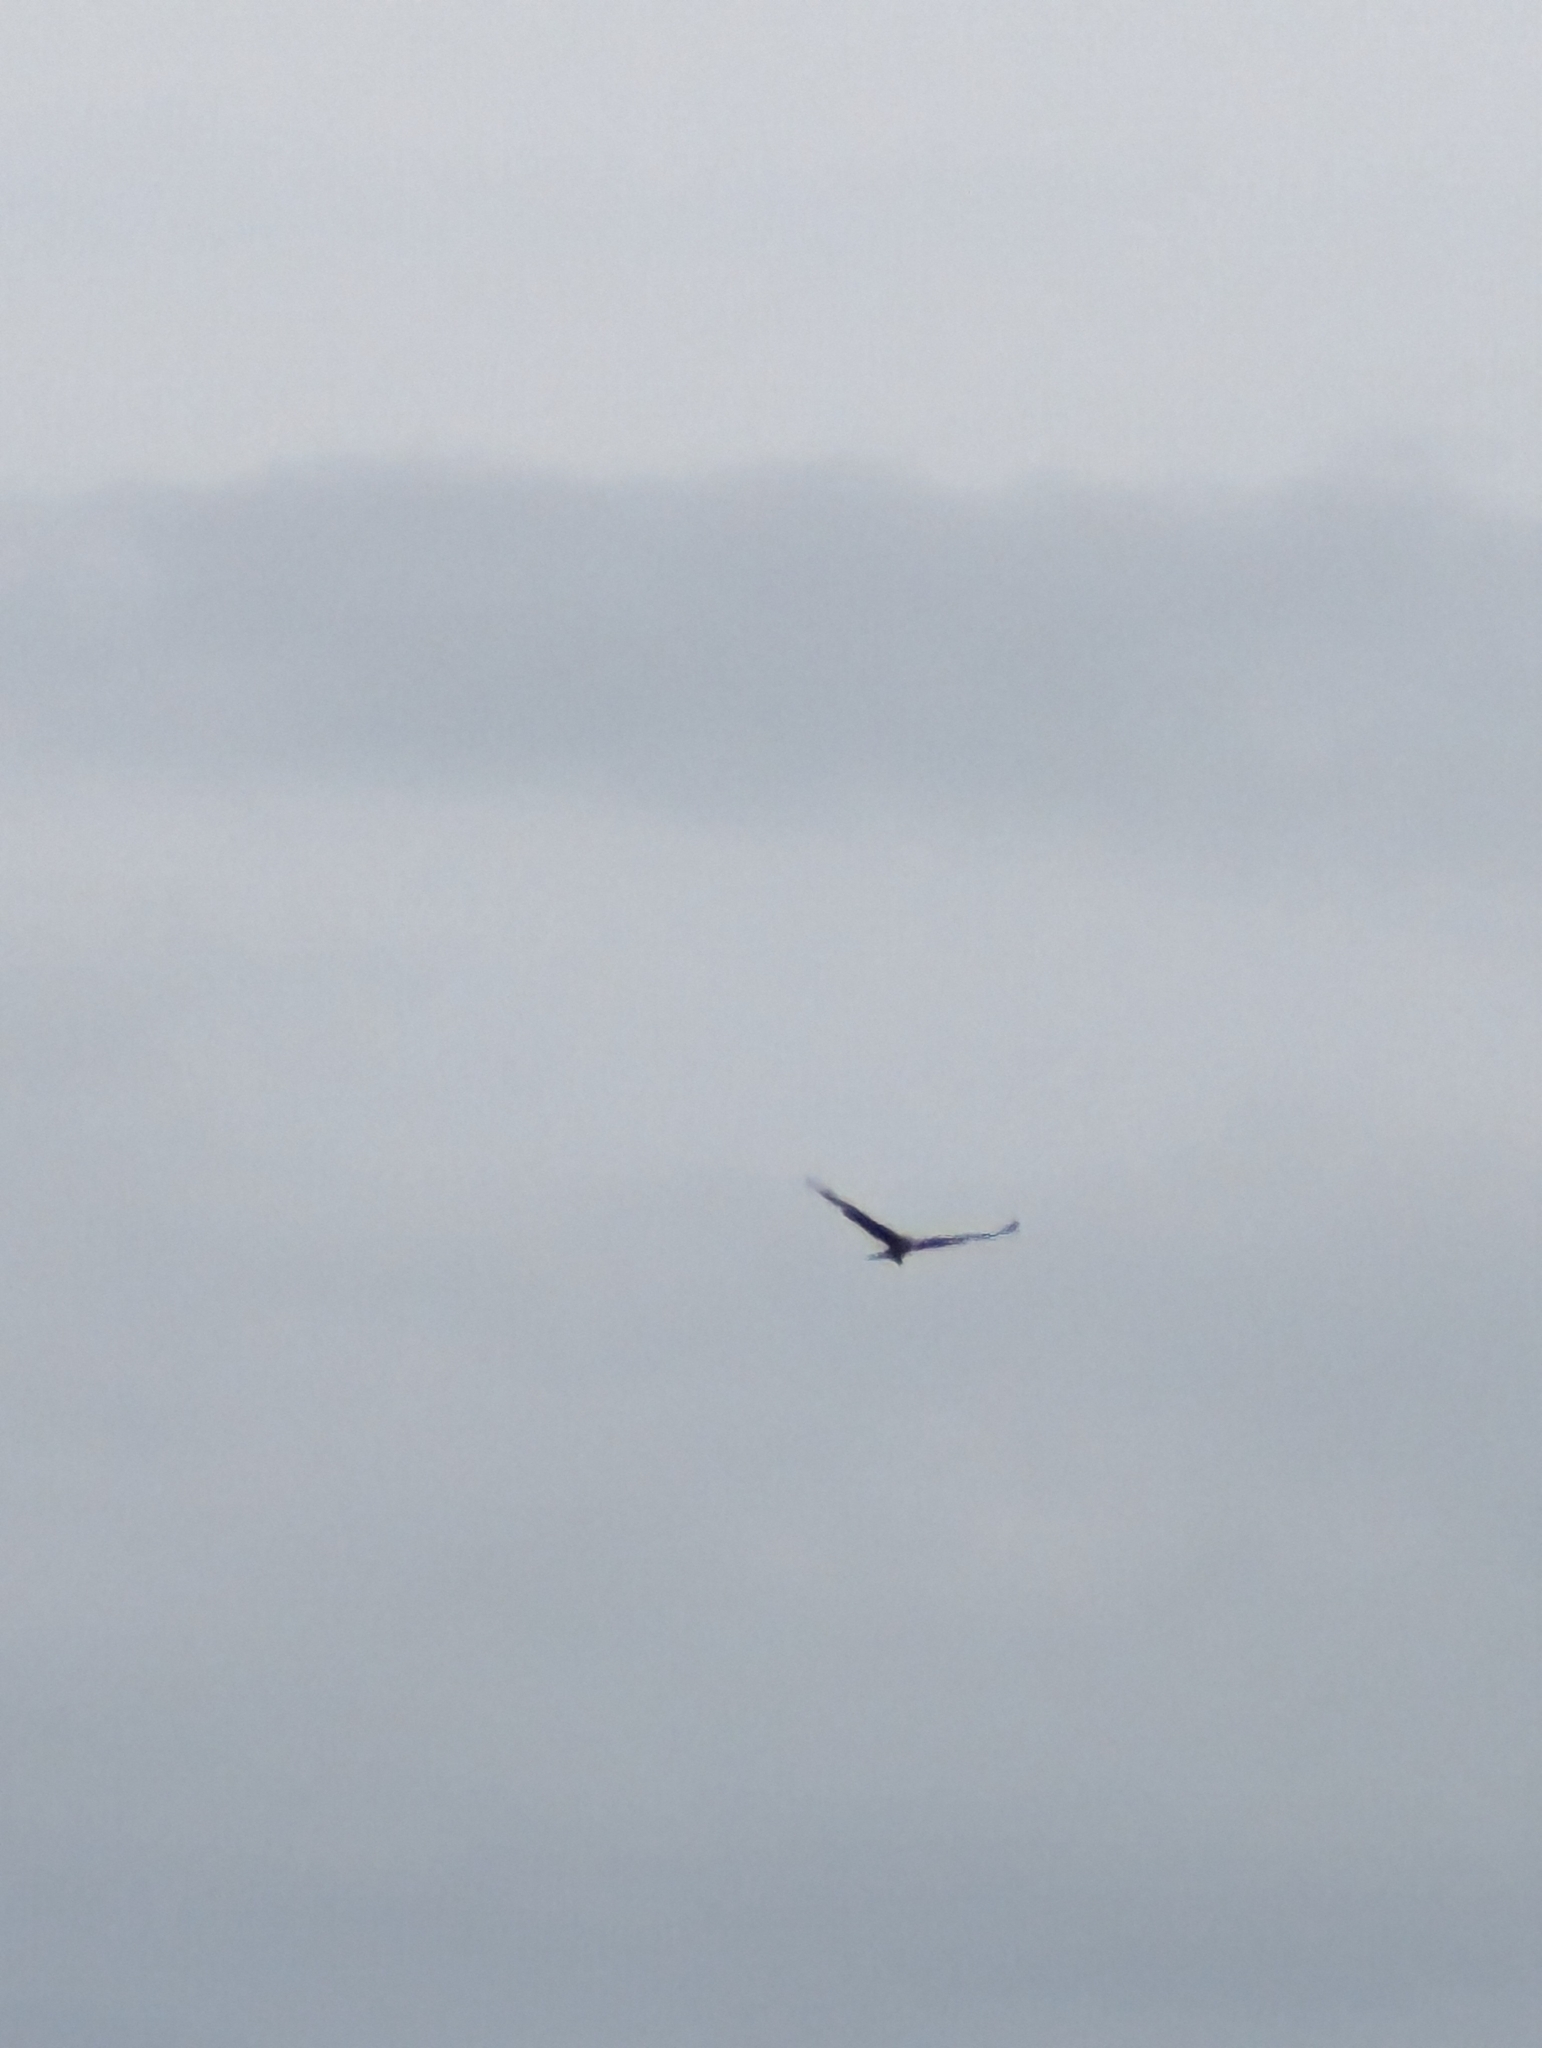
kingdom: Animalia
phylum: Chordata
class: Aves
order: Accipitriformes
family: Accipitridae
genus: Milvus
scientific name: Milvus milvus
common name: Red kite
